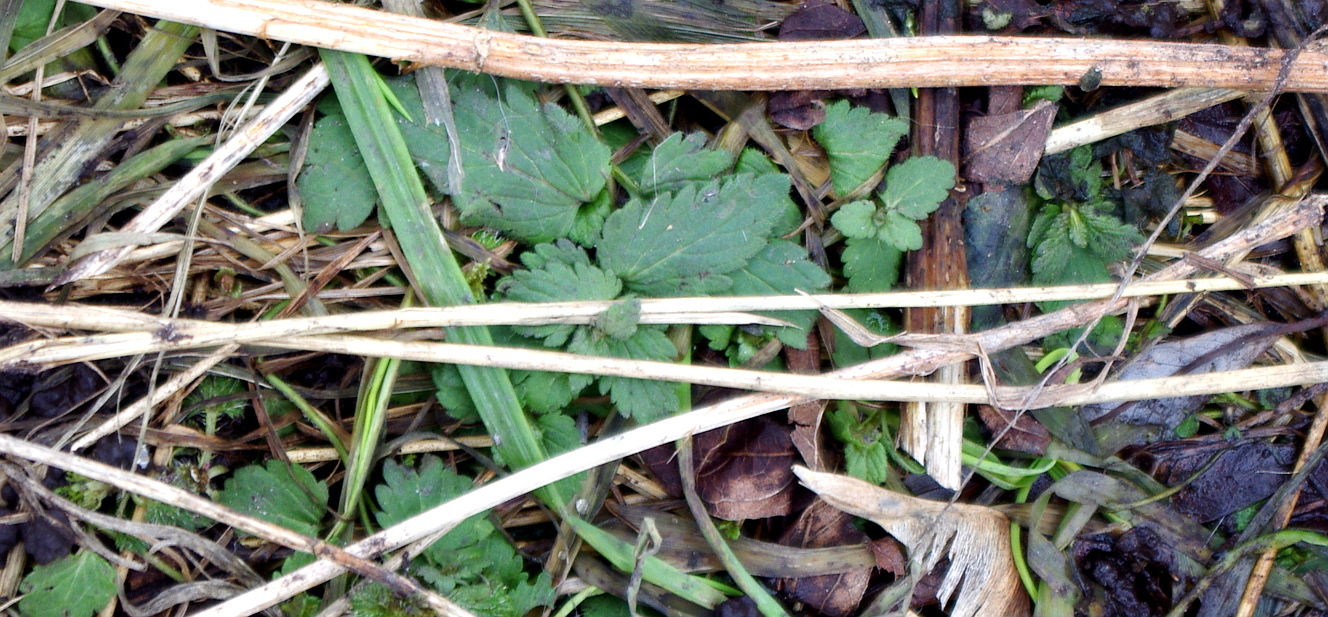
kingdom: Plantae
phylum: Tracheophyta
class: Magnoliopsida
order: Lamiales
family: Plantaginaceae
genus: Veronica
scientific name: Veronica chamaedrys
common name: Germander speedwell
